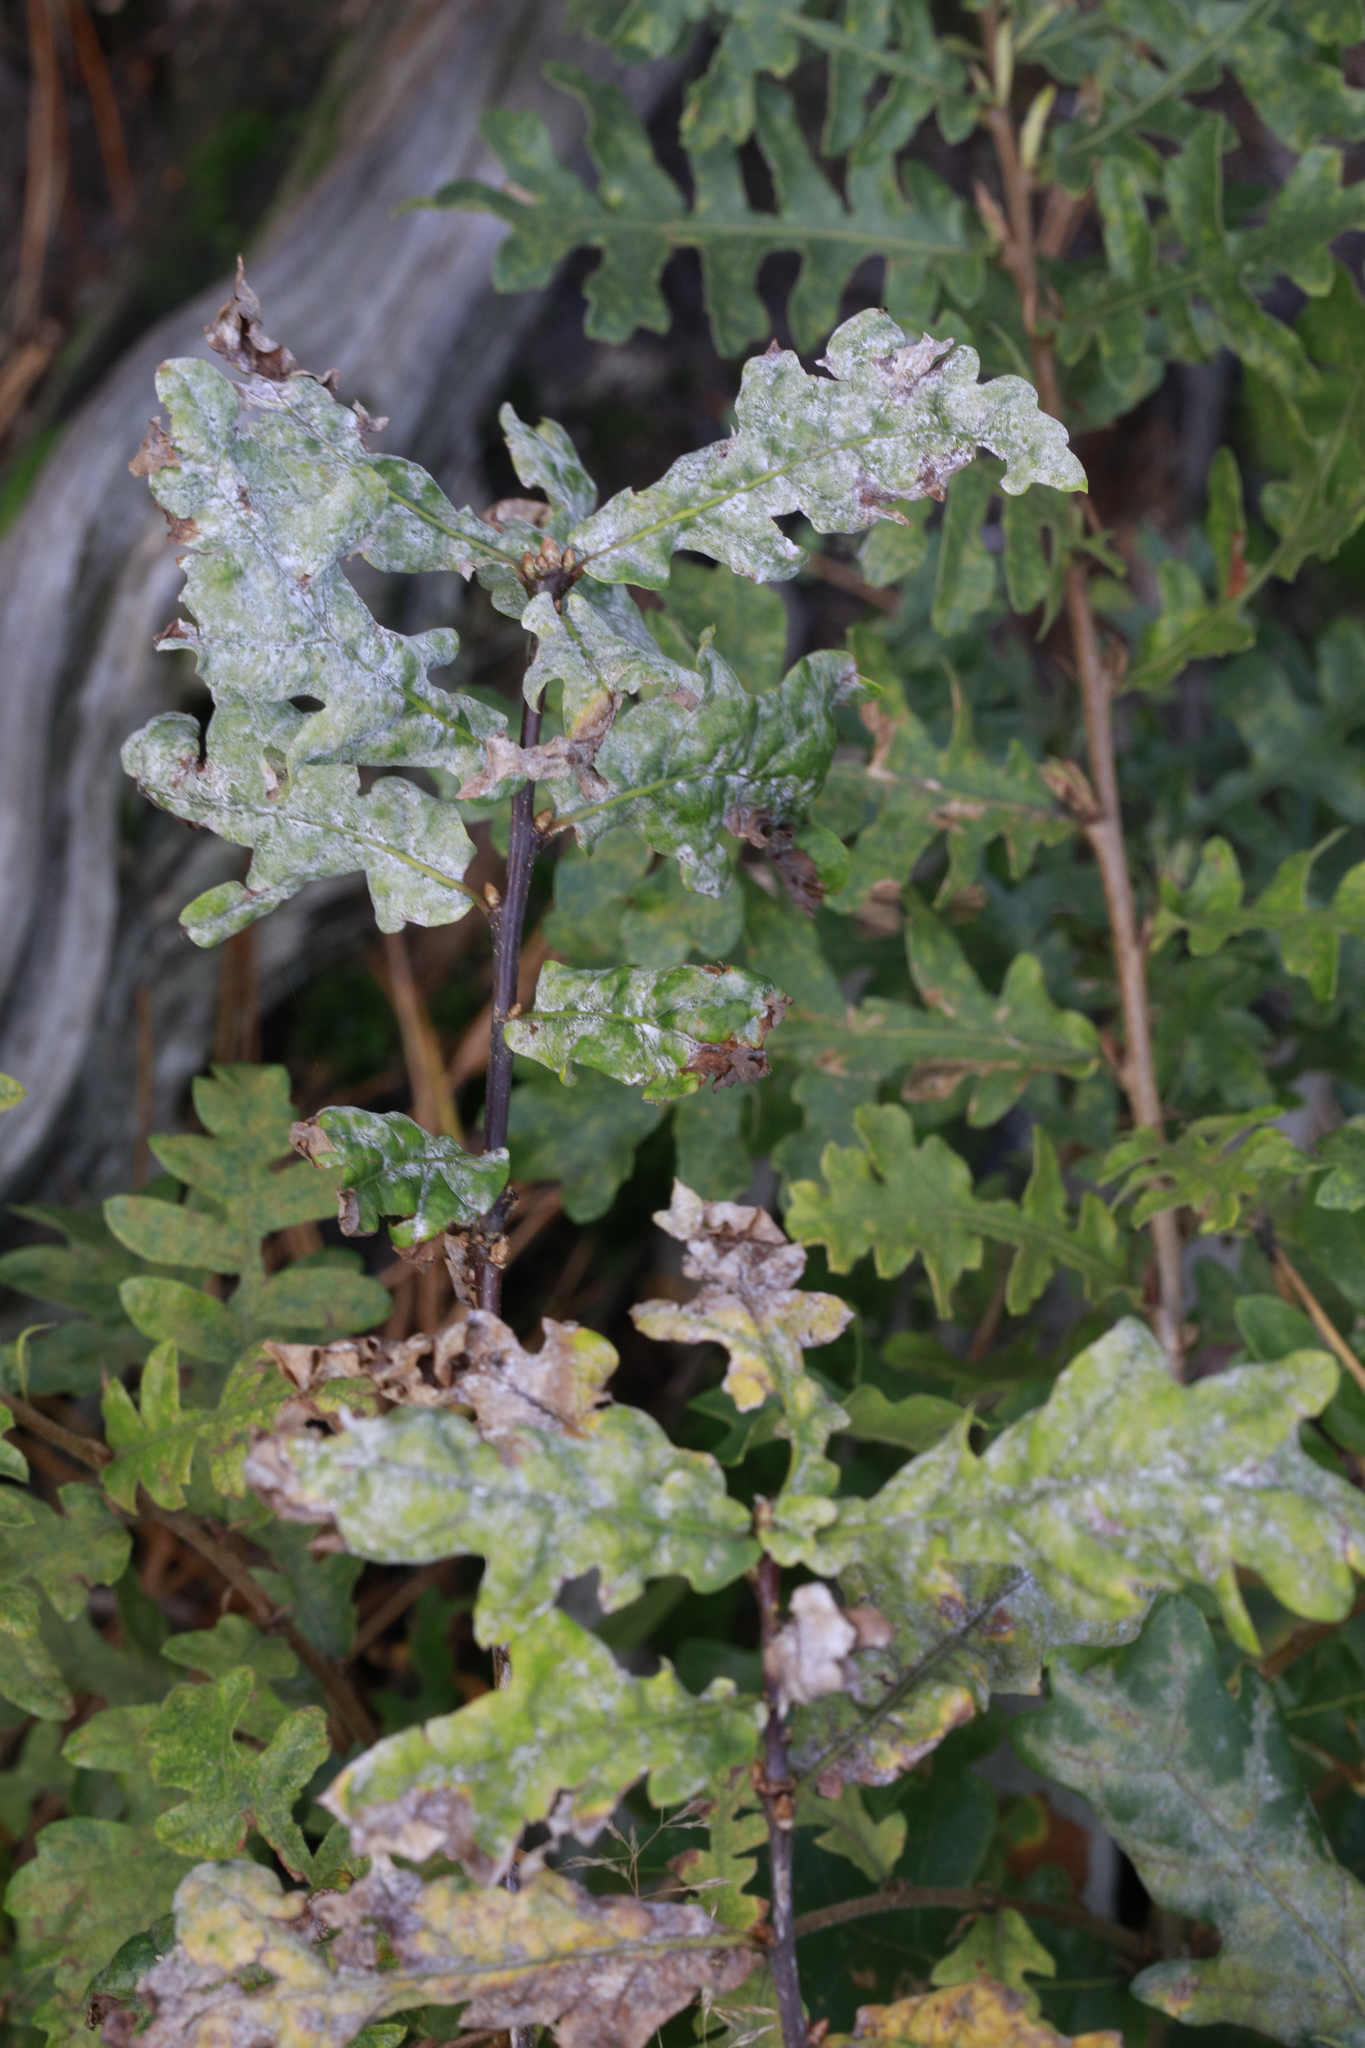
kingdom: Fungi
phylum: Ascomycota
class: Leotiomycetes
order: Helotiales
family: Erysiphaceae
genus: Erysiphe
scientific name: Erysiphe alphitoides
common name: Oak mildew
